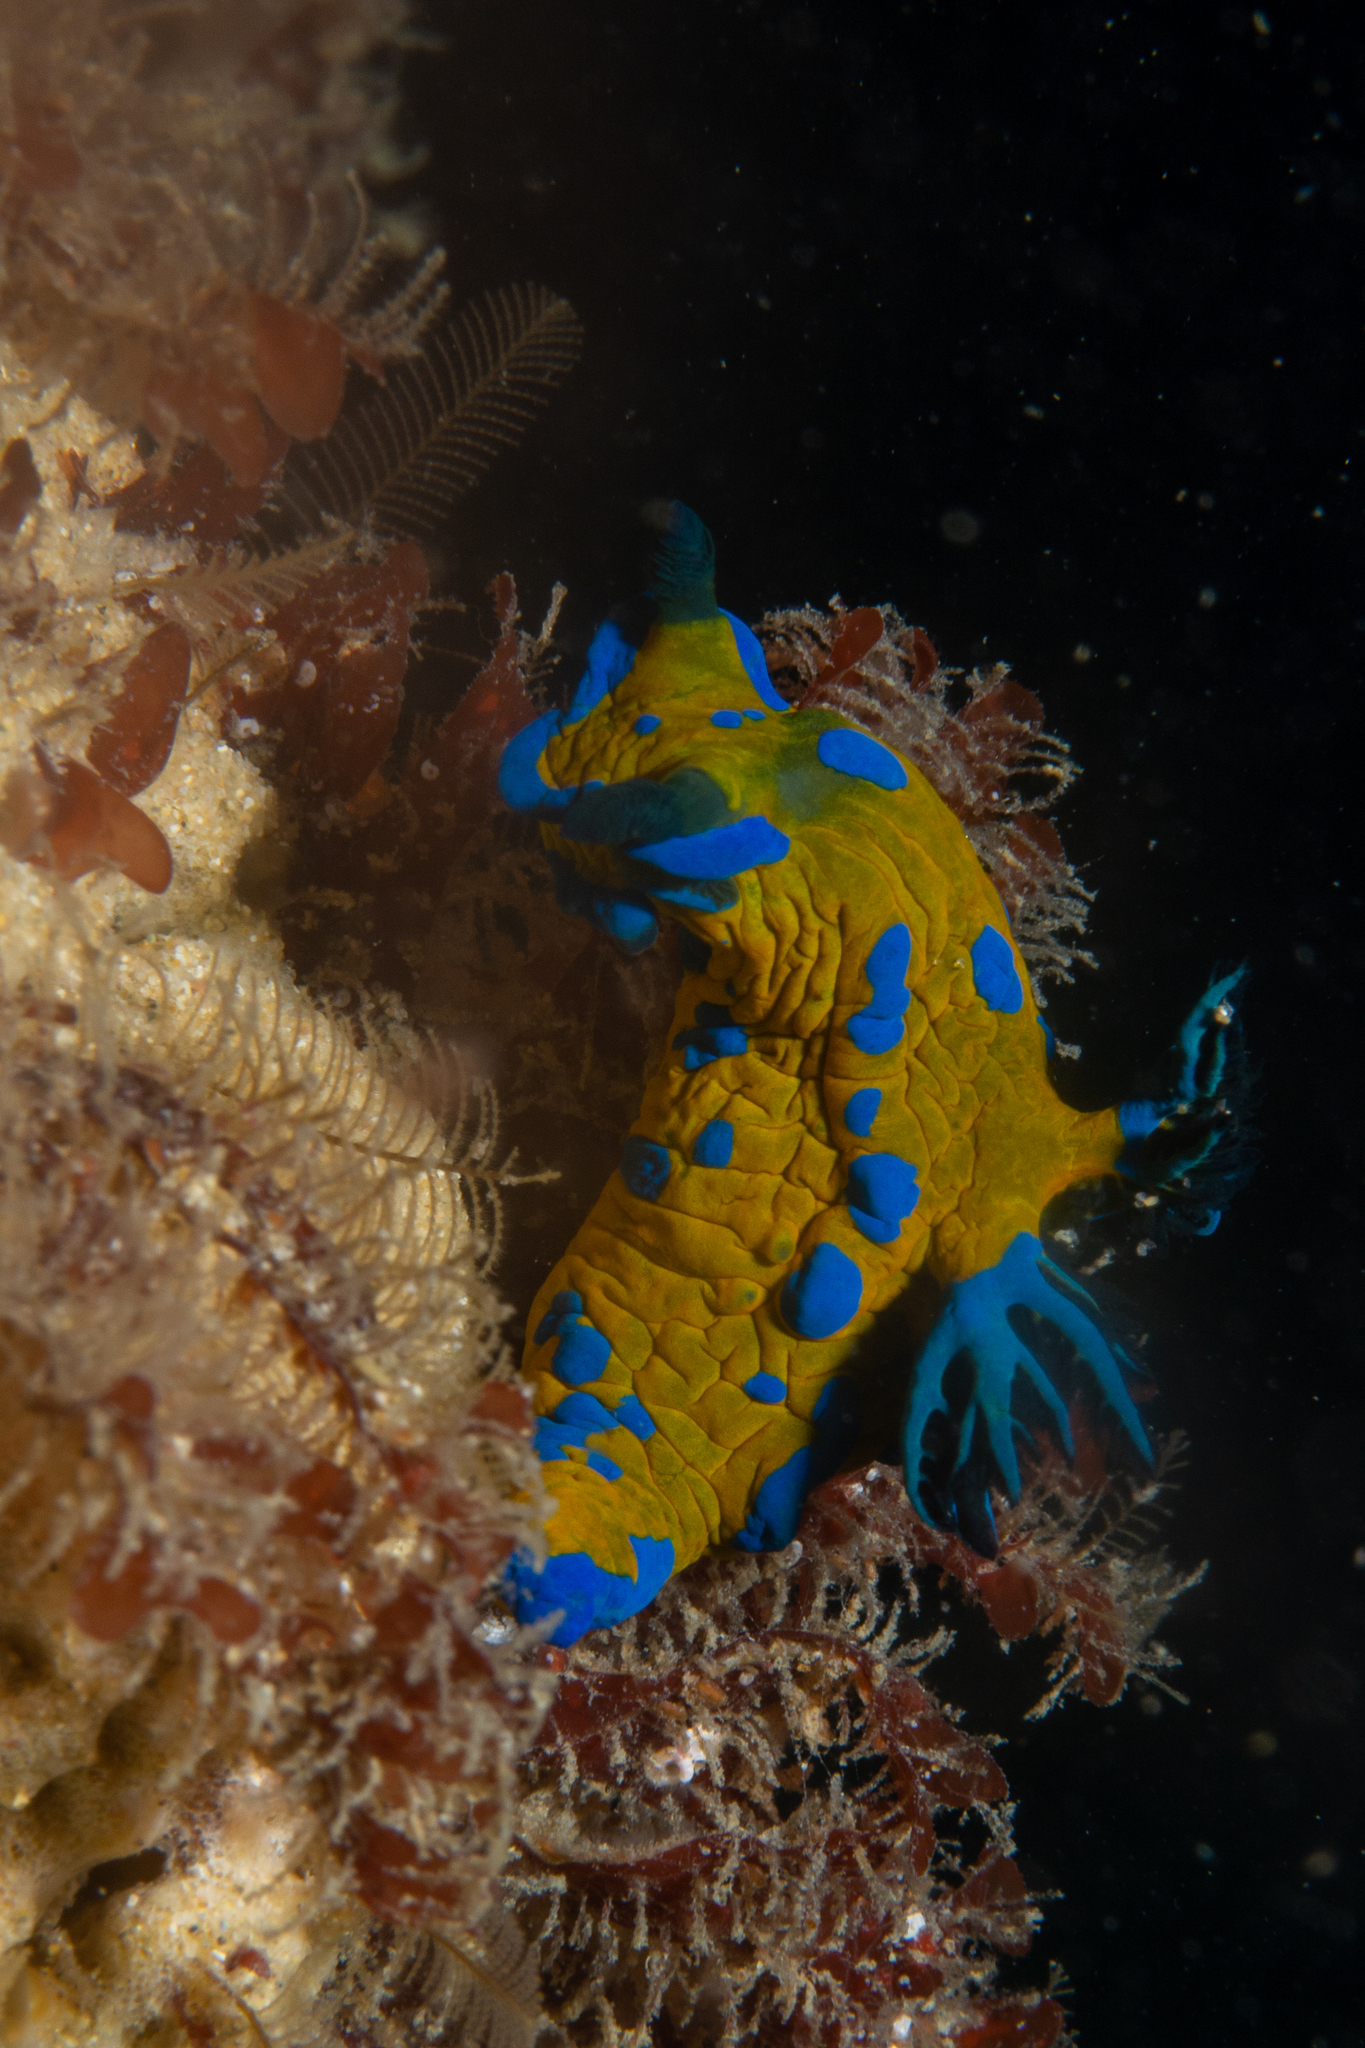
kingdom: Animalia
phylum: Mollusca
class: Gastropoda
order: Nudibranchia
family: Polyceridae
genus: Tambja
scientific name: Tambja verconis
